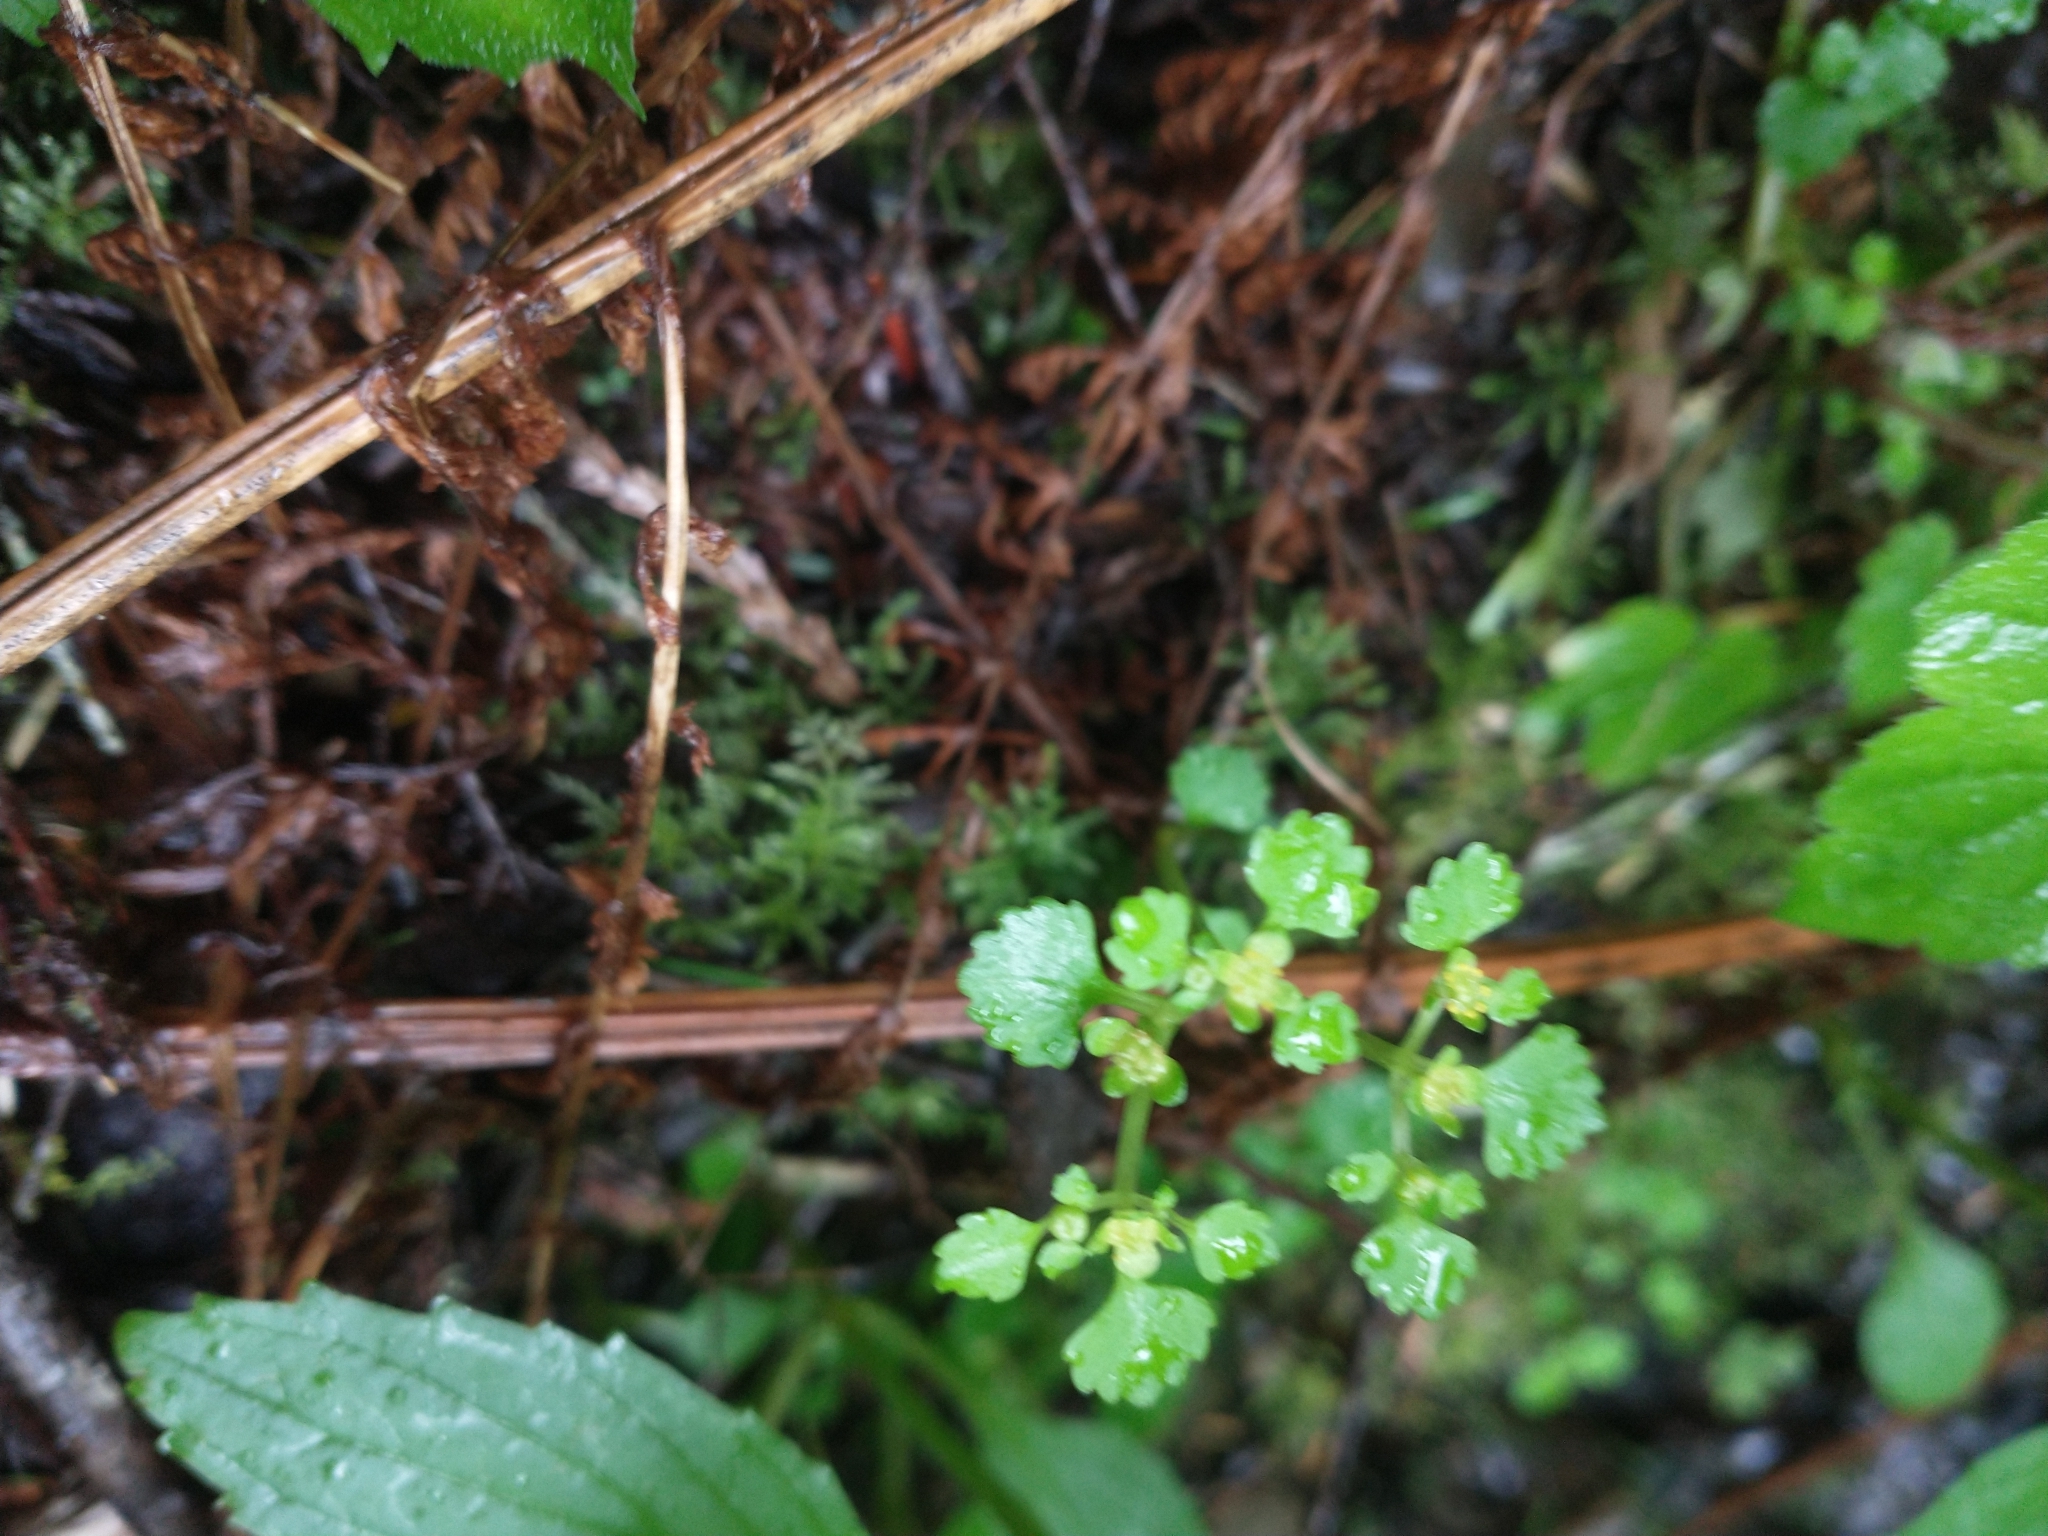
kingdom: Plantae
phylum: Tracheophyta
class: Magnoliopsida
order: Saxifragales
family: Saxifragaceae
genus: Chrysosplenium
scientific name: Chrysosplenium glechomifolium
